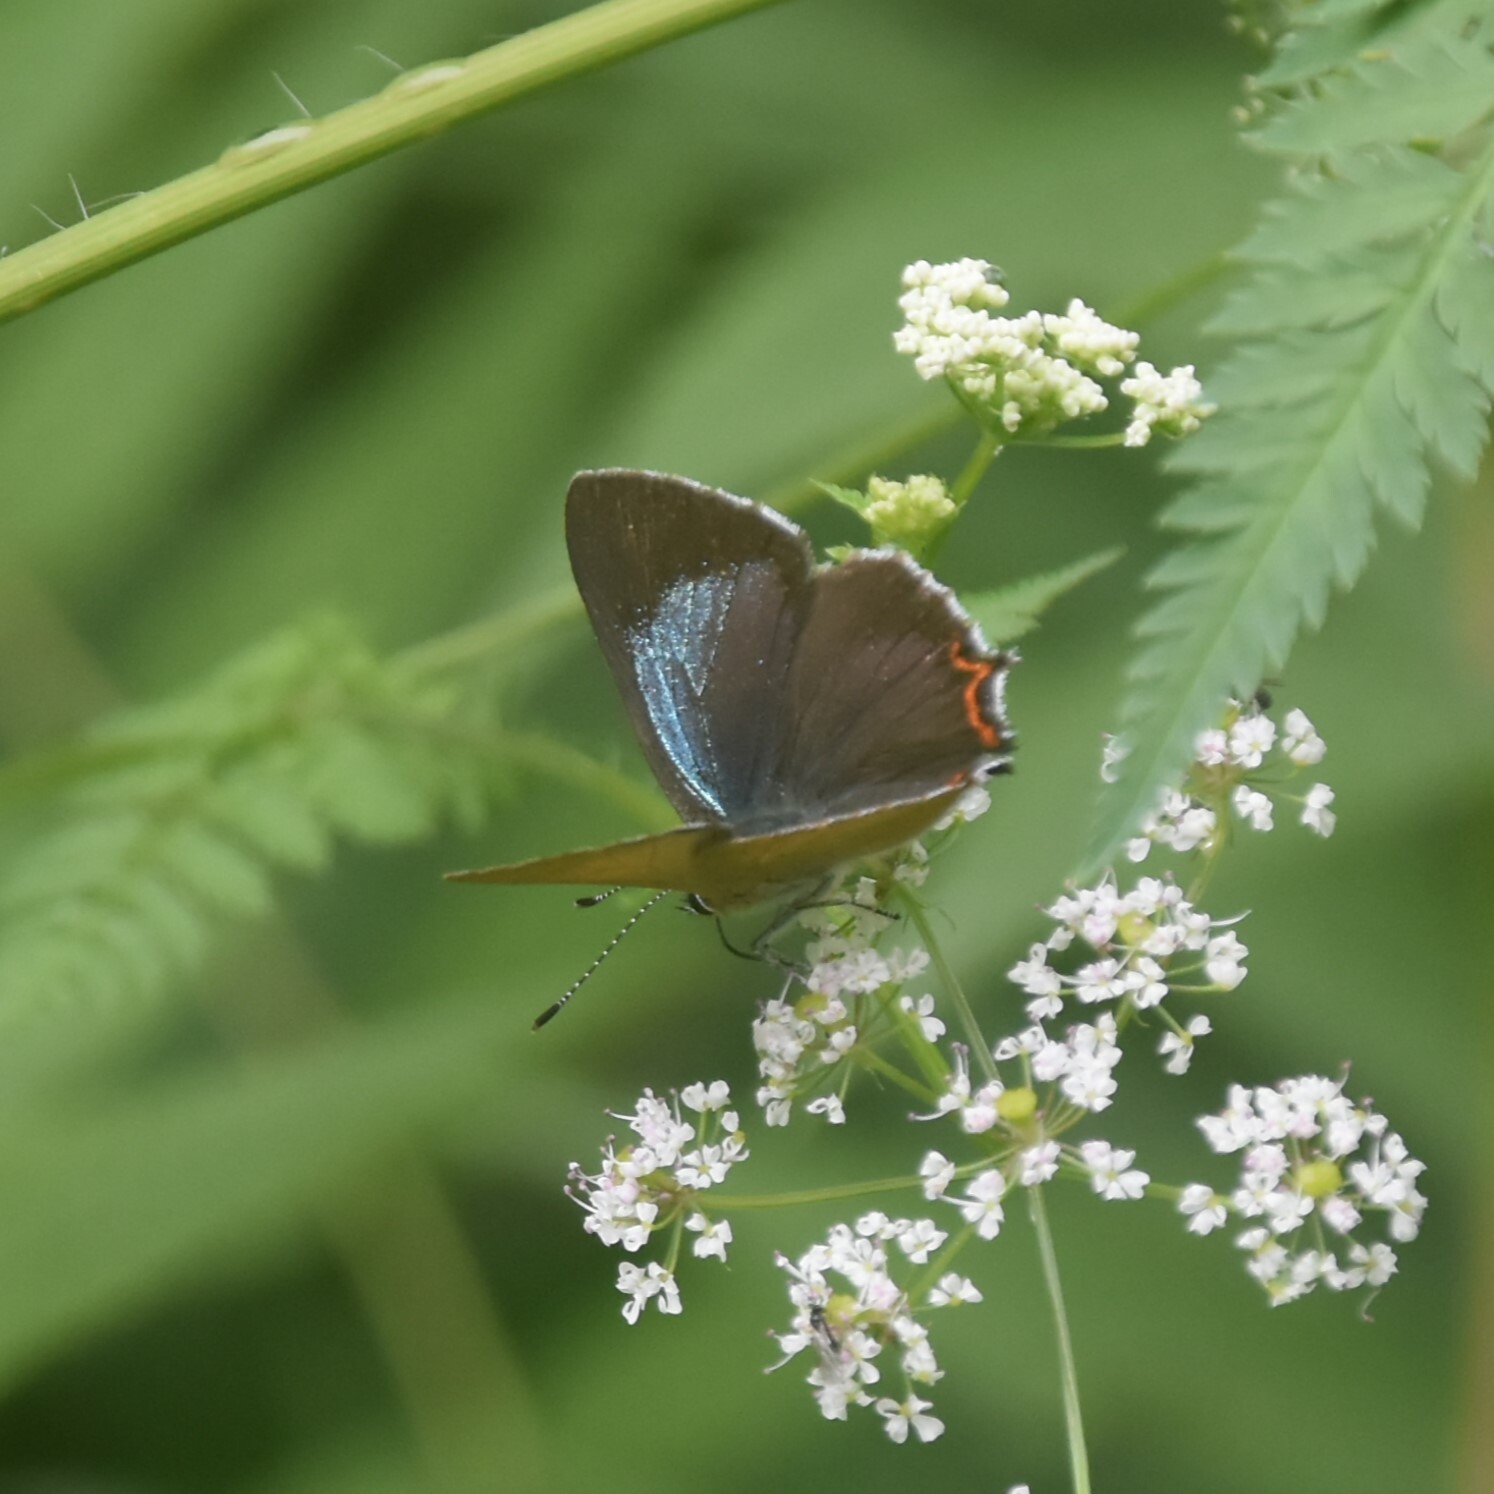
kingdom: Animalia
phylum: Arthropoda
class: Insecta
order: Lepidoptera
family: Lycaenidae
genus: Heliophorus
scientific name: Heliophorus
